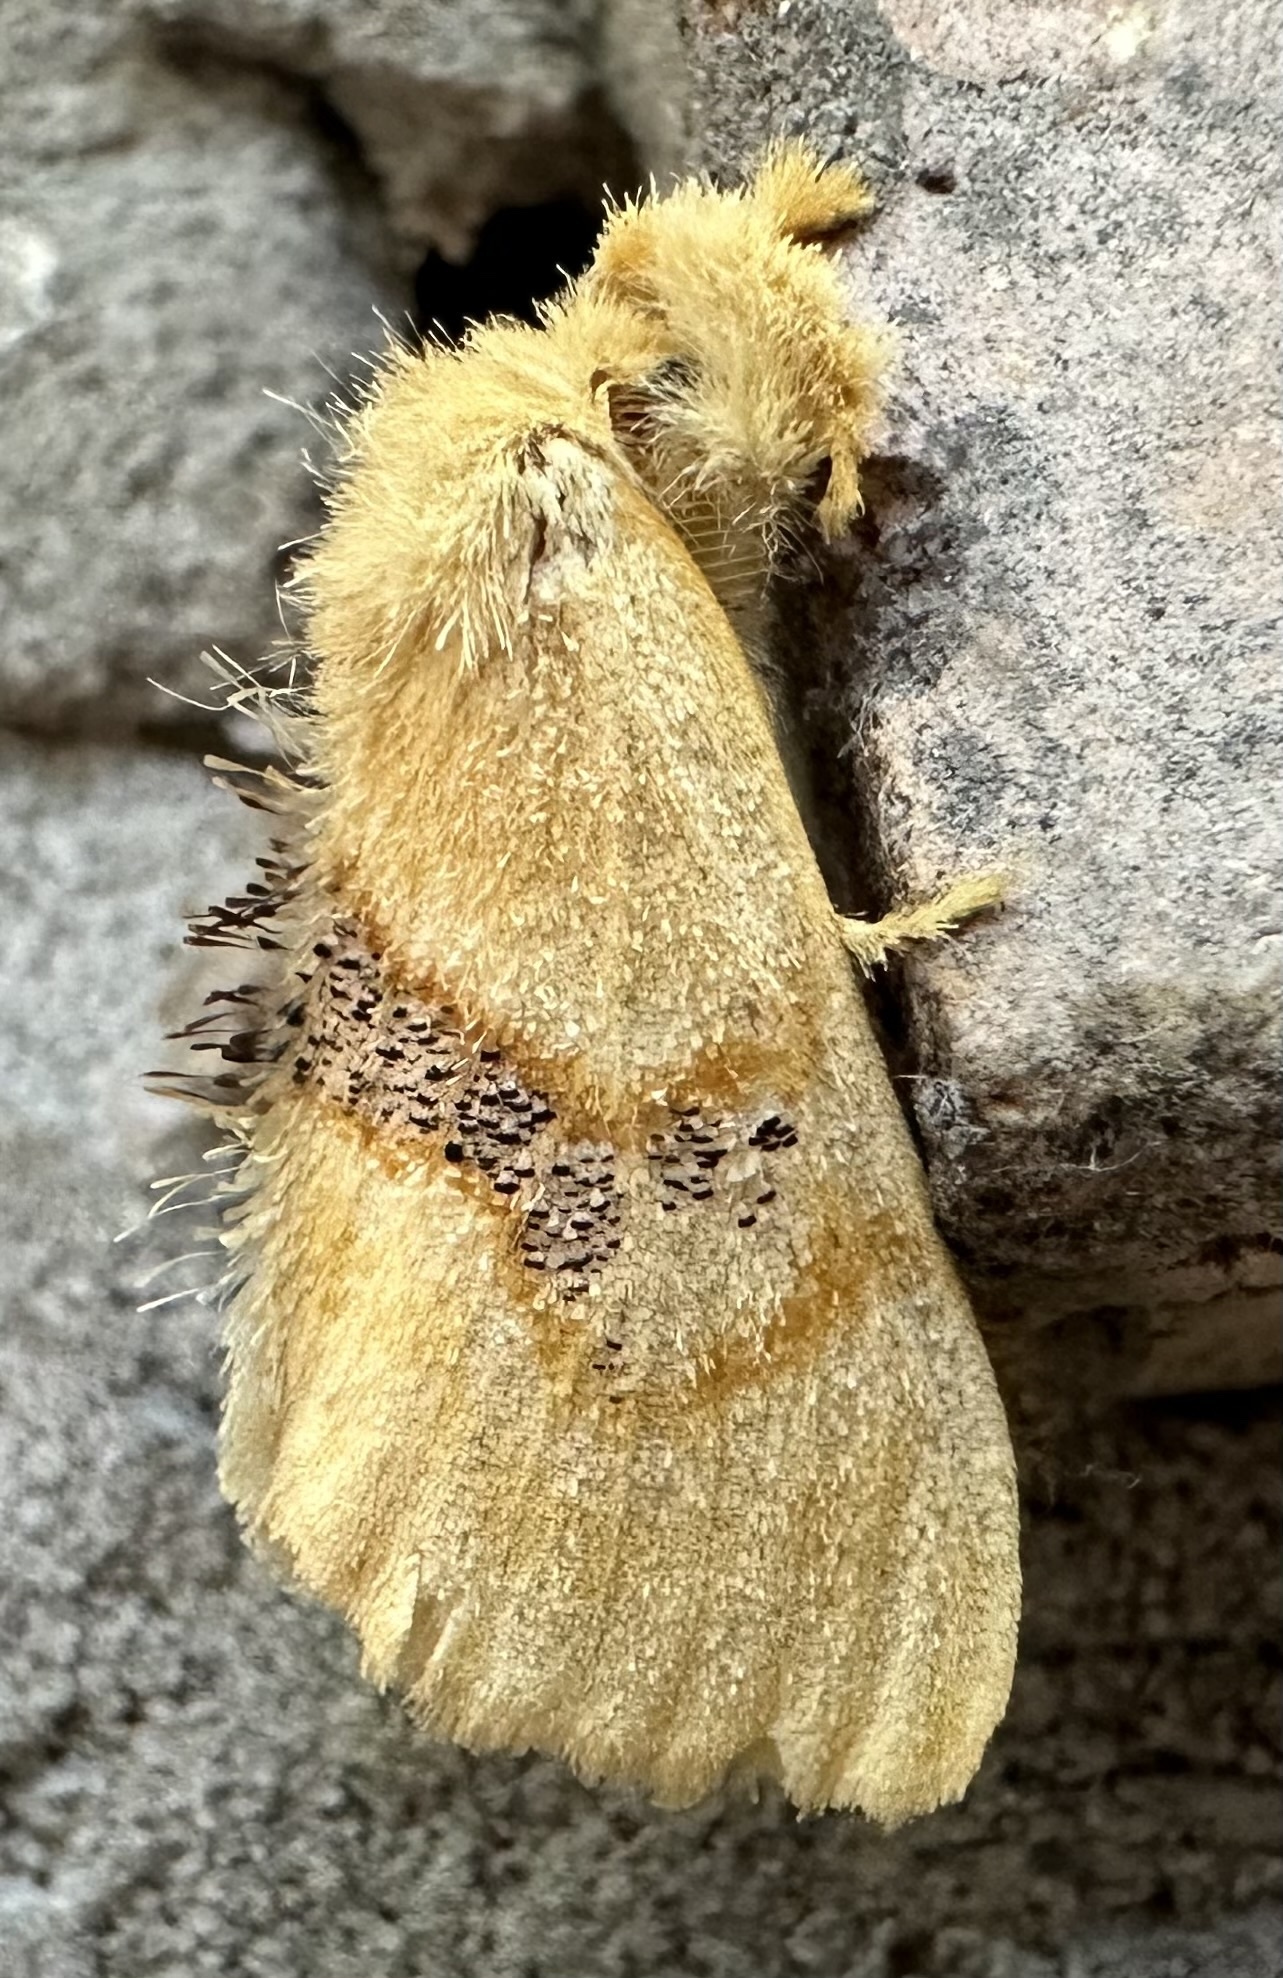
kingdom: Animalia
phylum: Arthropoda
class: Insecta
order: Lepidoptera
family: Erebidae
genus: Euproctis
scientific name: Euproctis Knappetra fasciata
